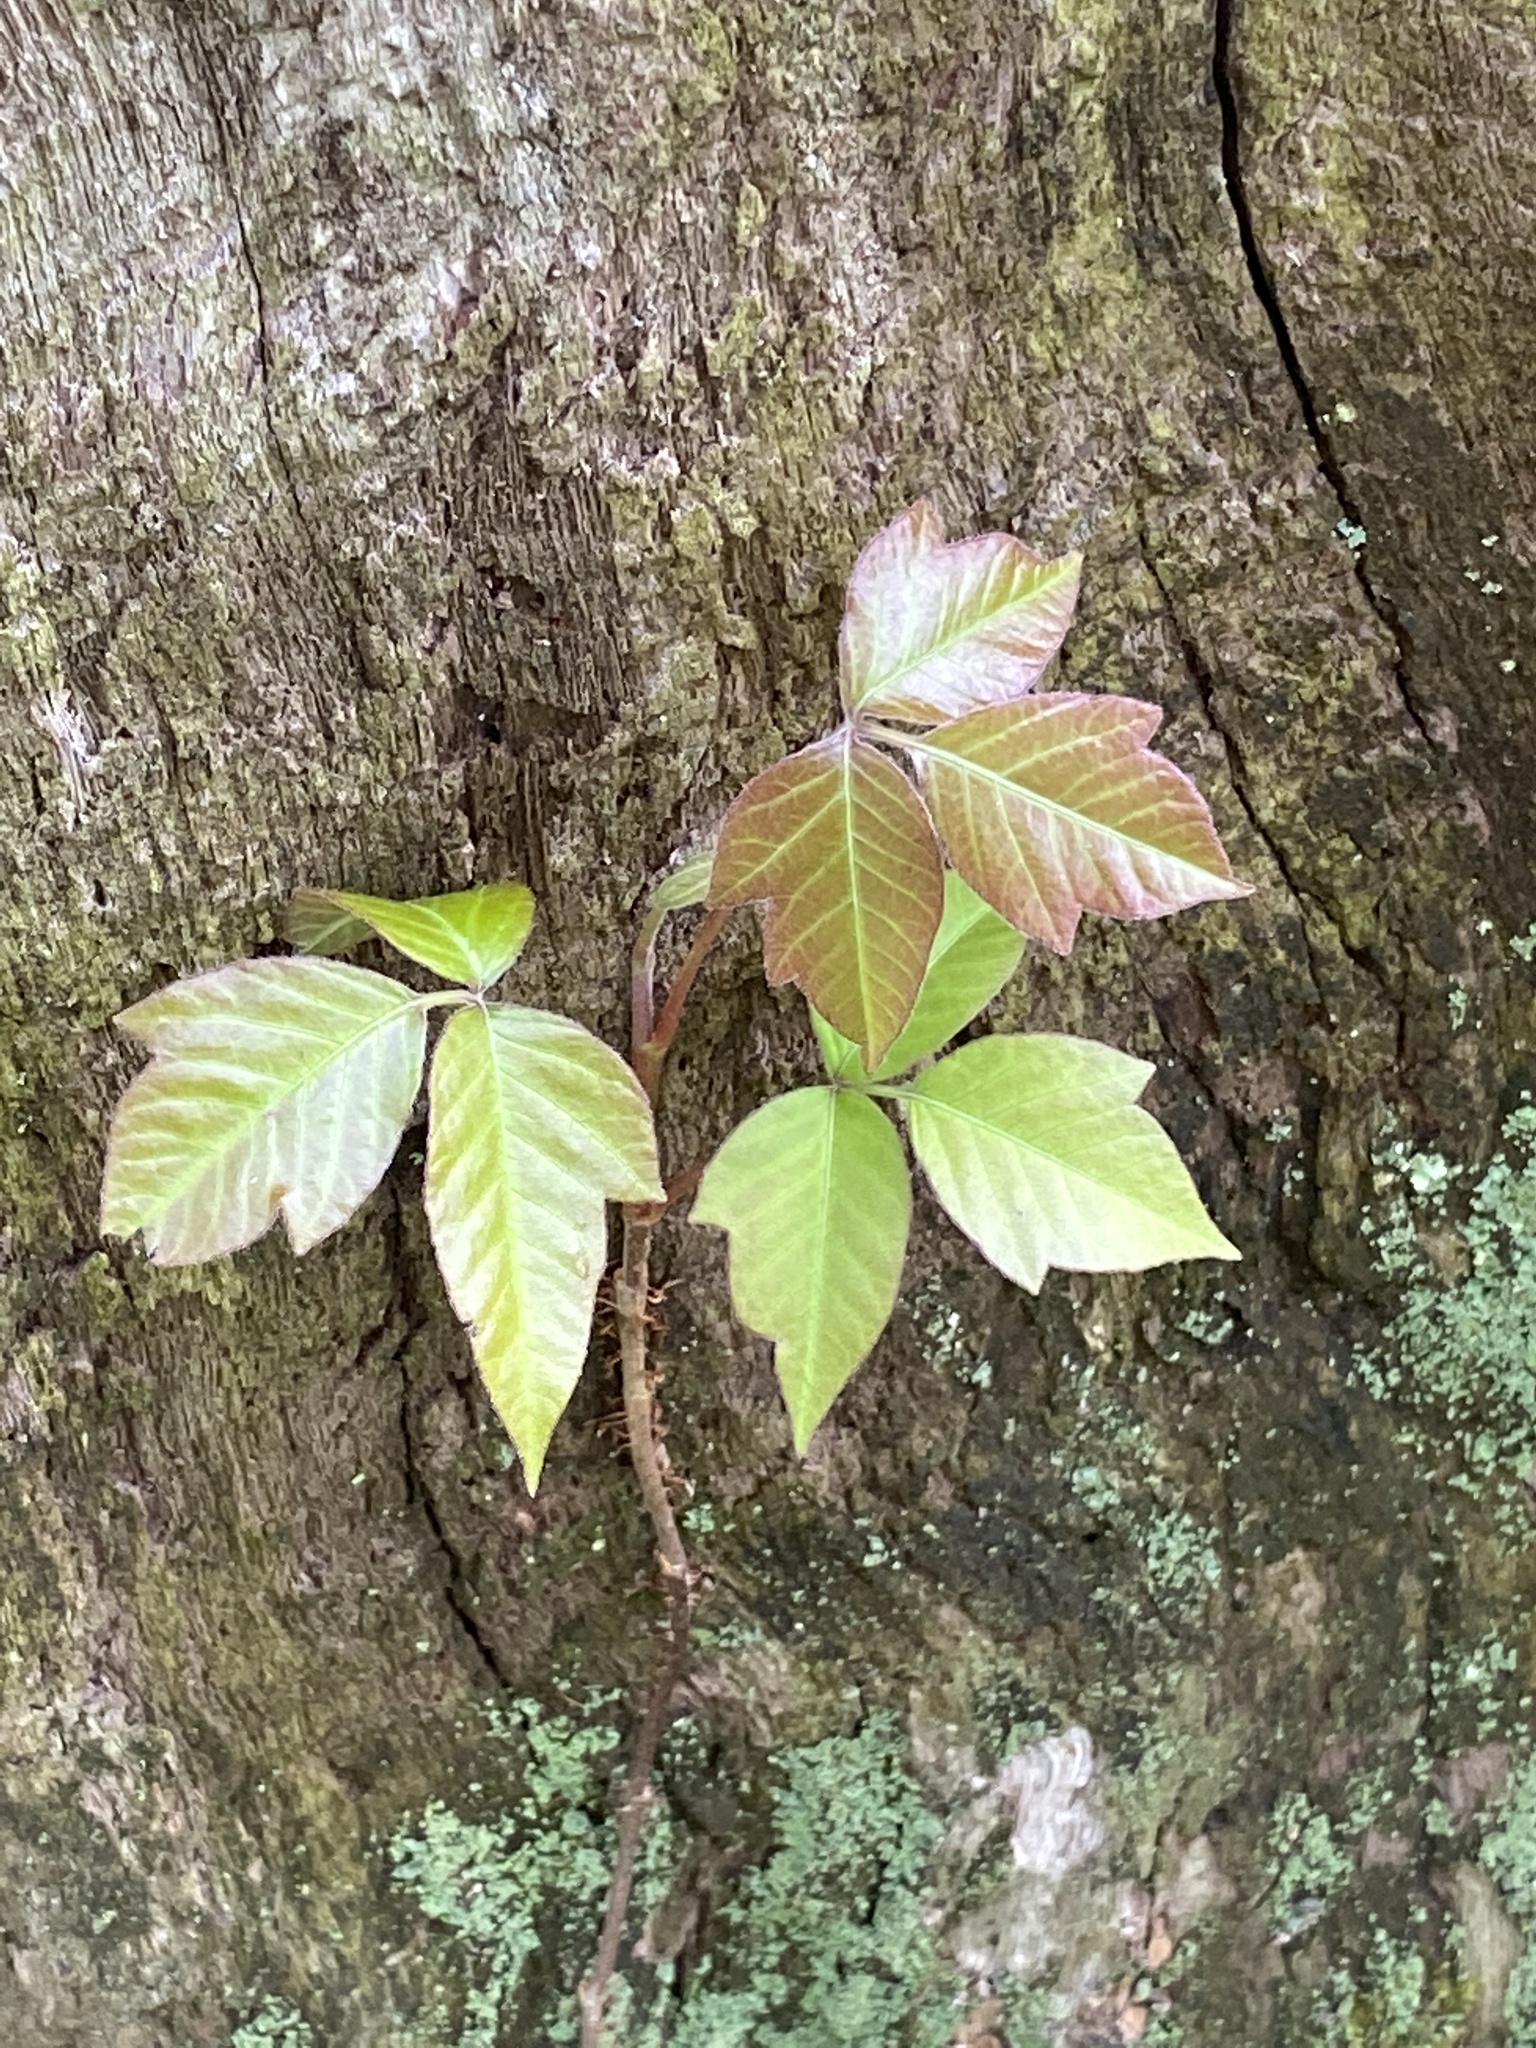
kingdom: Plantae
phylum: Tracheophyta
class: Magnoliopsida
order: Sapindales
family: Anacardiaceae
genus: Toxicodendron
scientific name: Toxicodendron radicans
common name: Poison ivy
